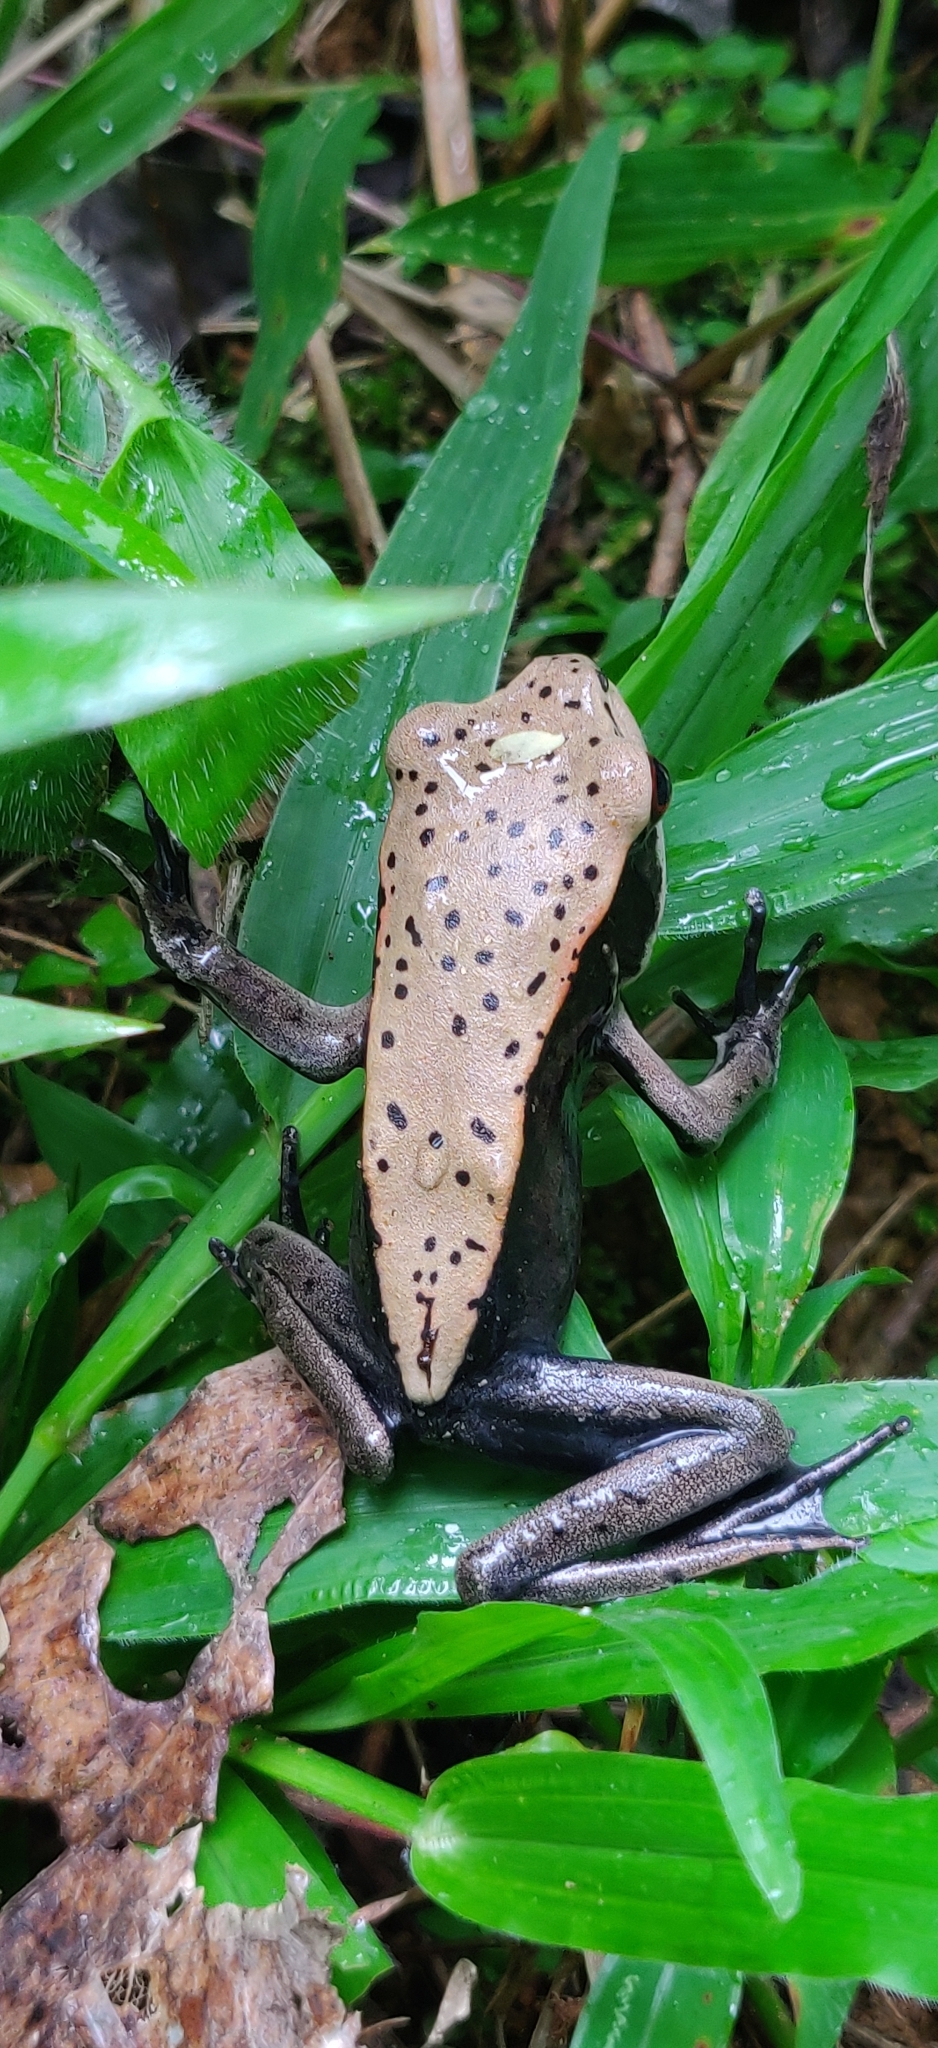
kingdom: Animalia
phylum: Chordata
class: Amphibia
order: Anura
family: Ranidae
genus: Clinotarsus
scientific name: Clinotarsus curtipes
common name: Bicoloured frog
